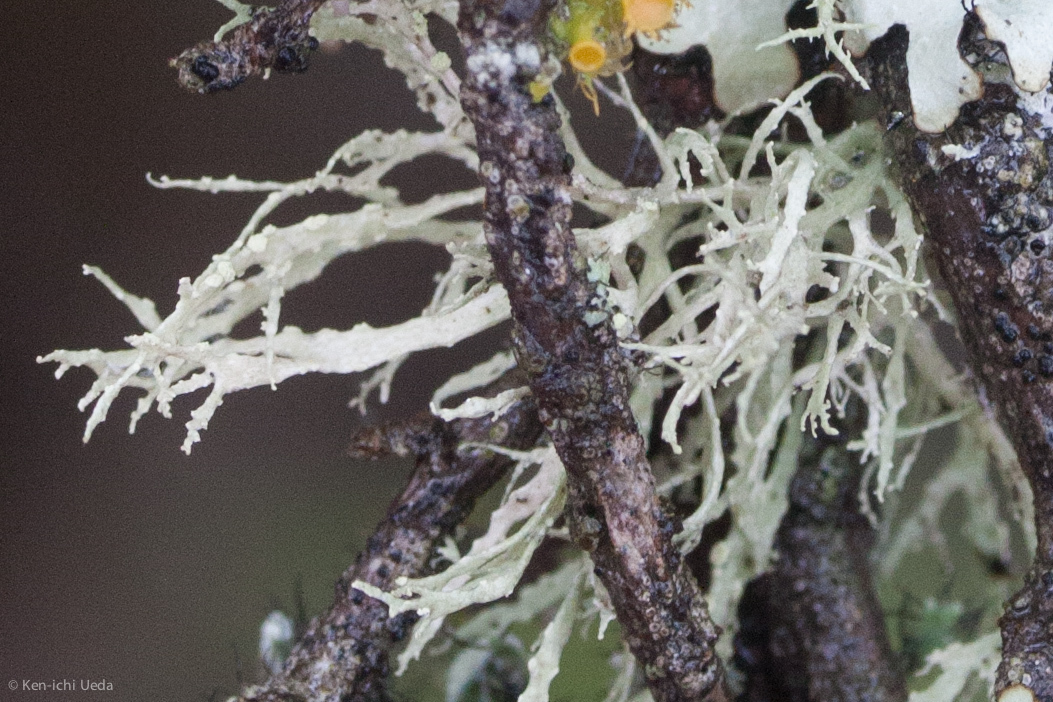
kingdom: Fungi
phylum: Ascomycota
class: Lecanoromycetes
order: Lecanorales
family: Ramalinaceae
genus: Ramalina
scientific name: Ramalina farinacea
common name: Farinose cartilage lichen
